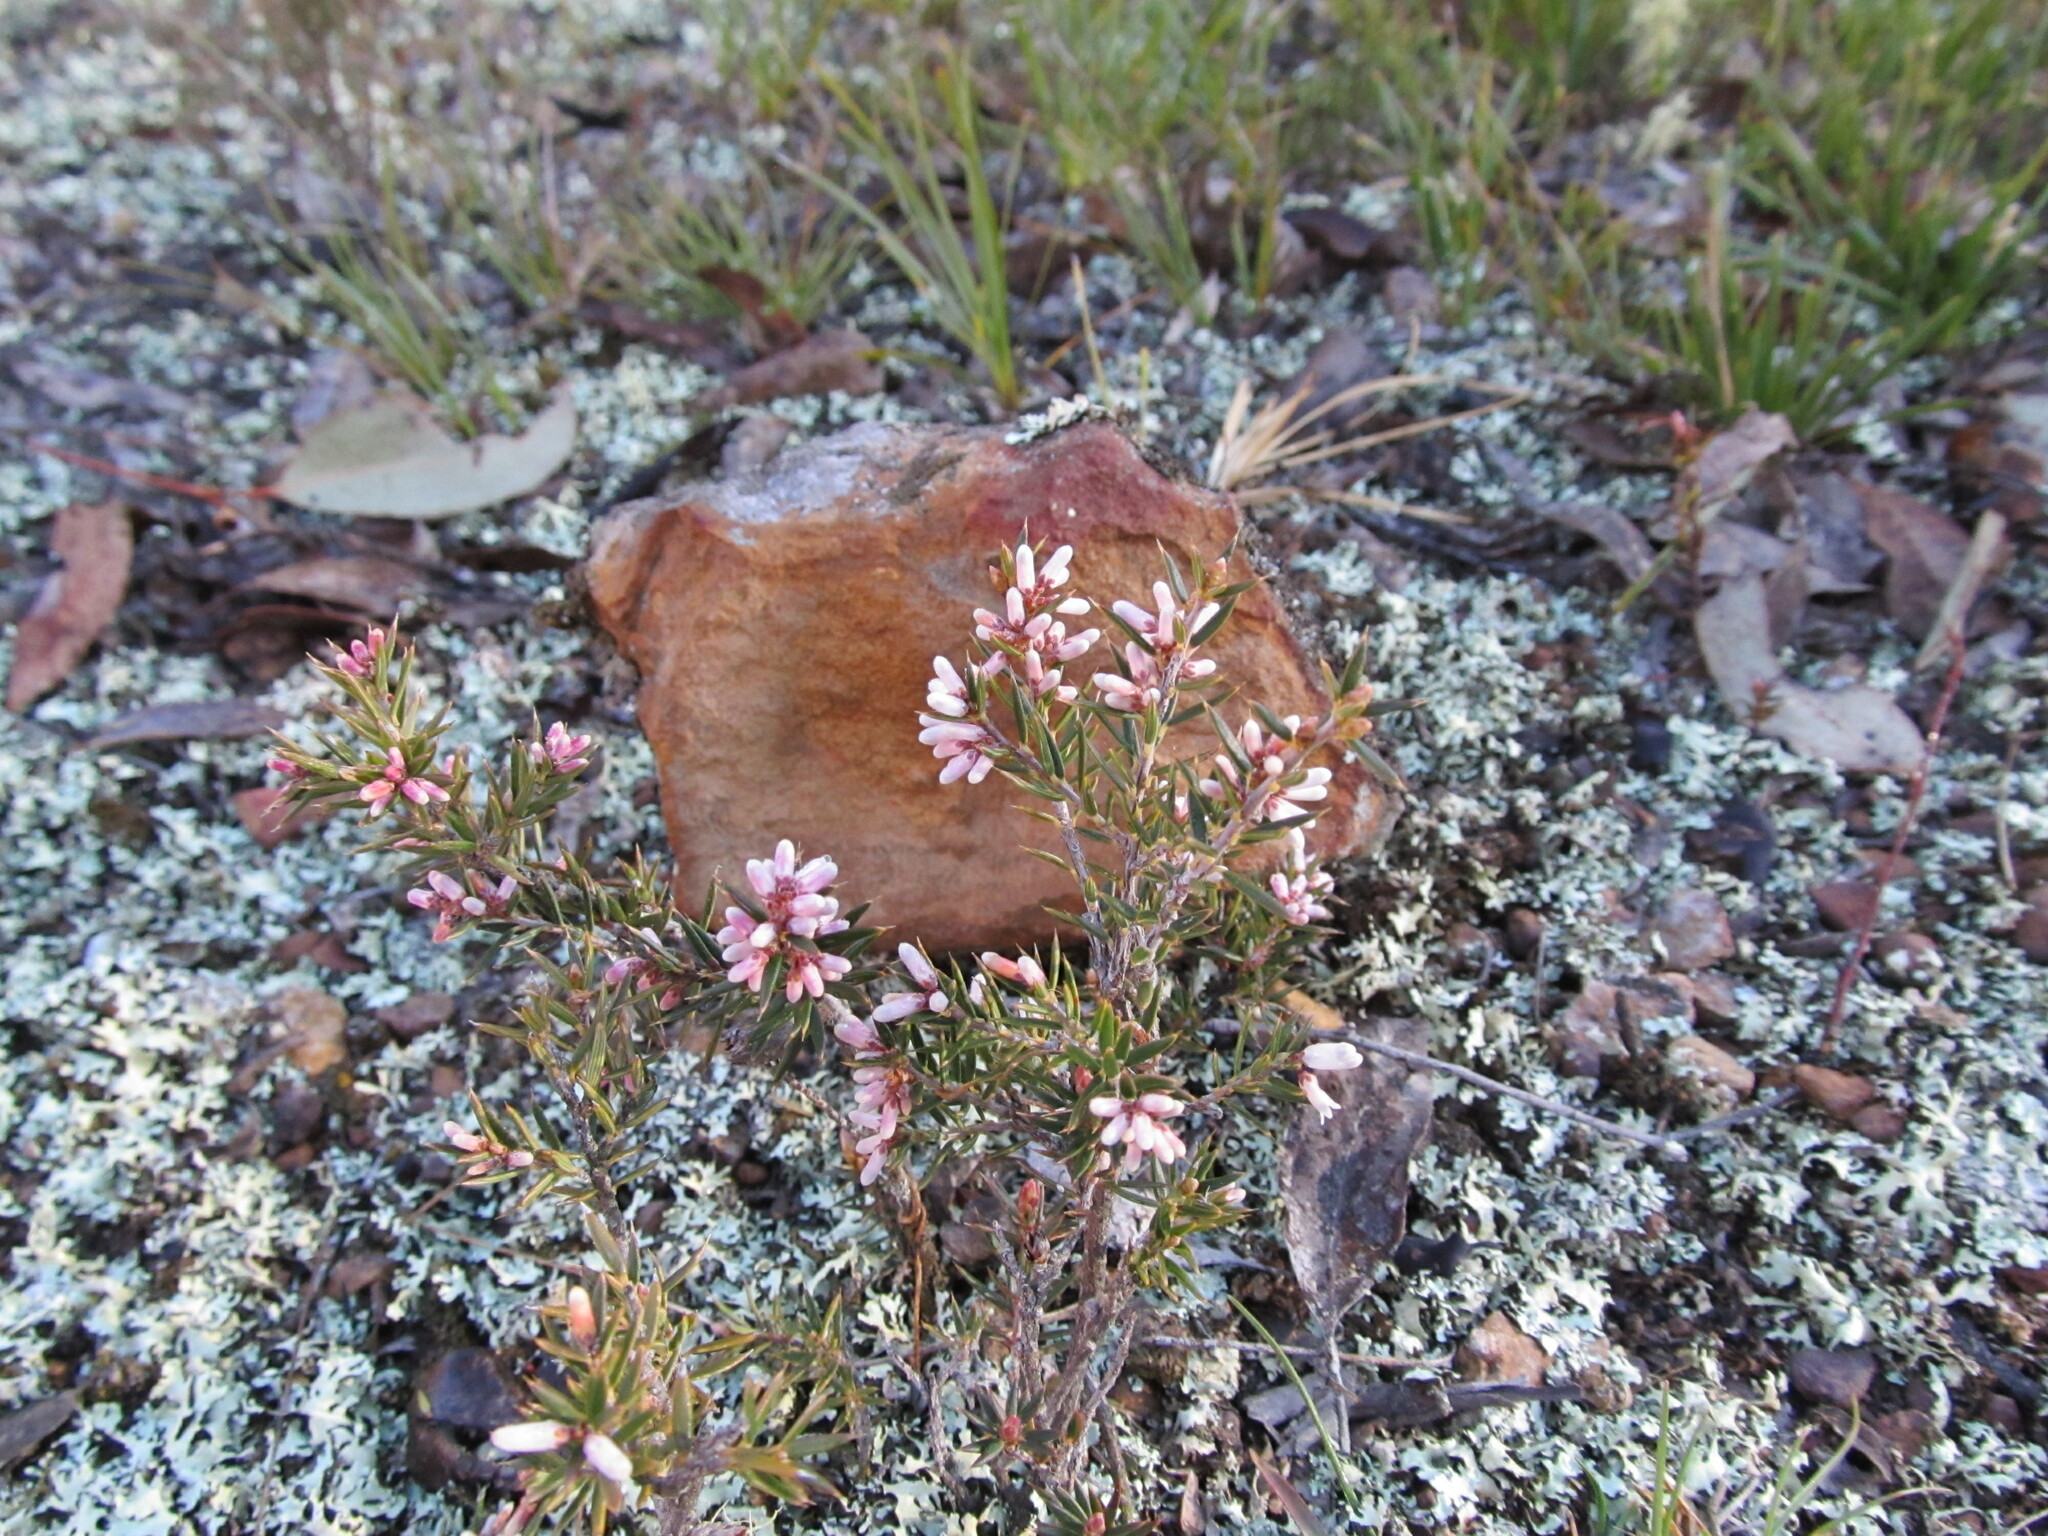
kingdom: Plantae
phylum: Tracheophyta
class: Magnoliopsida
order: Ericales
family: Ericaceae
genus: Lissanthe
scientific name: Lissanthe strigosa
